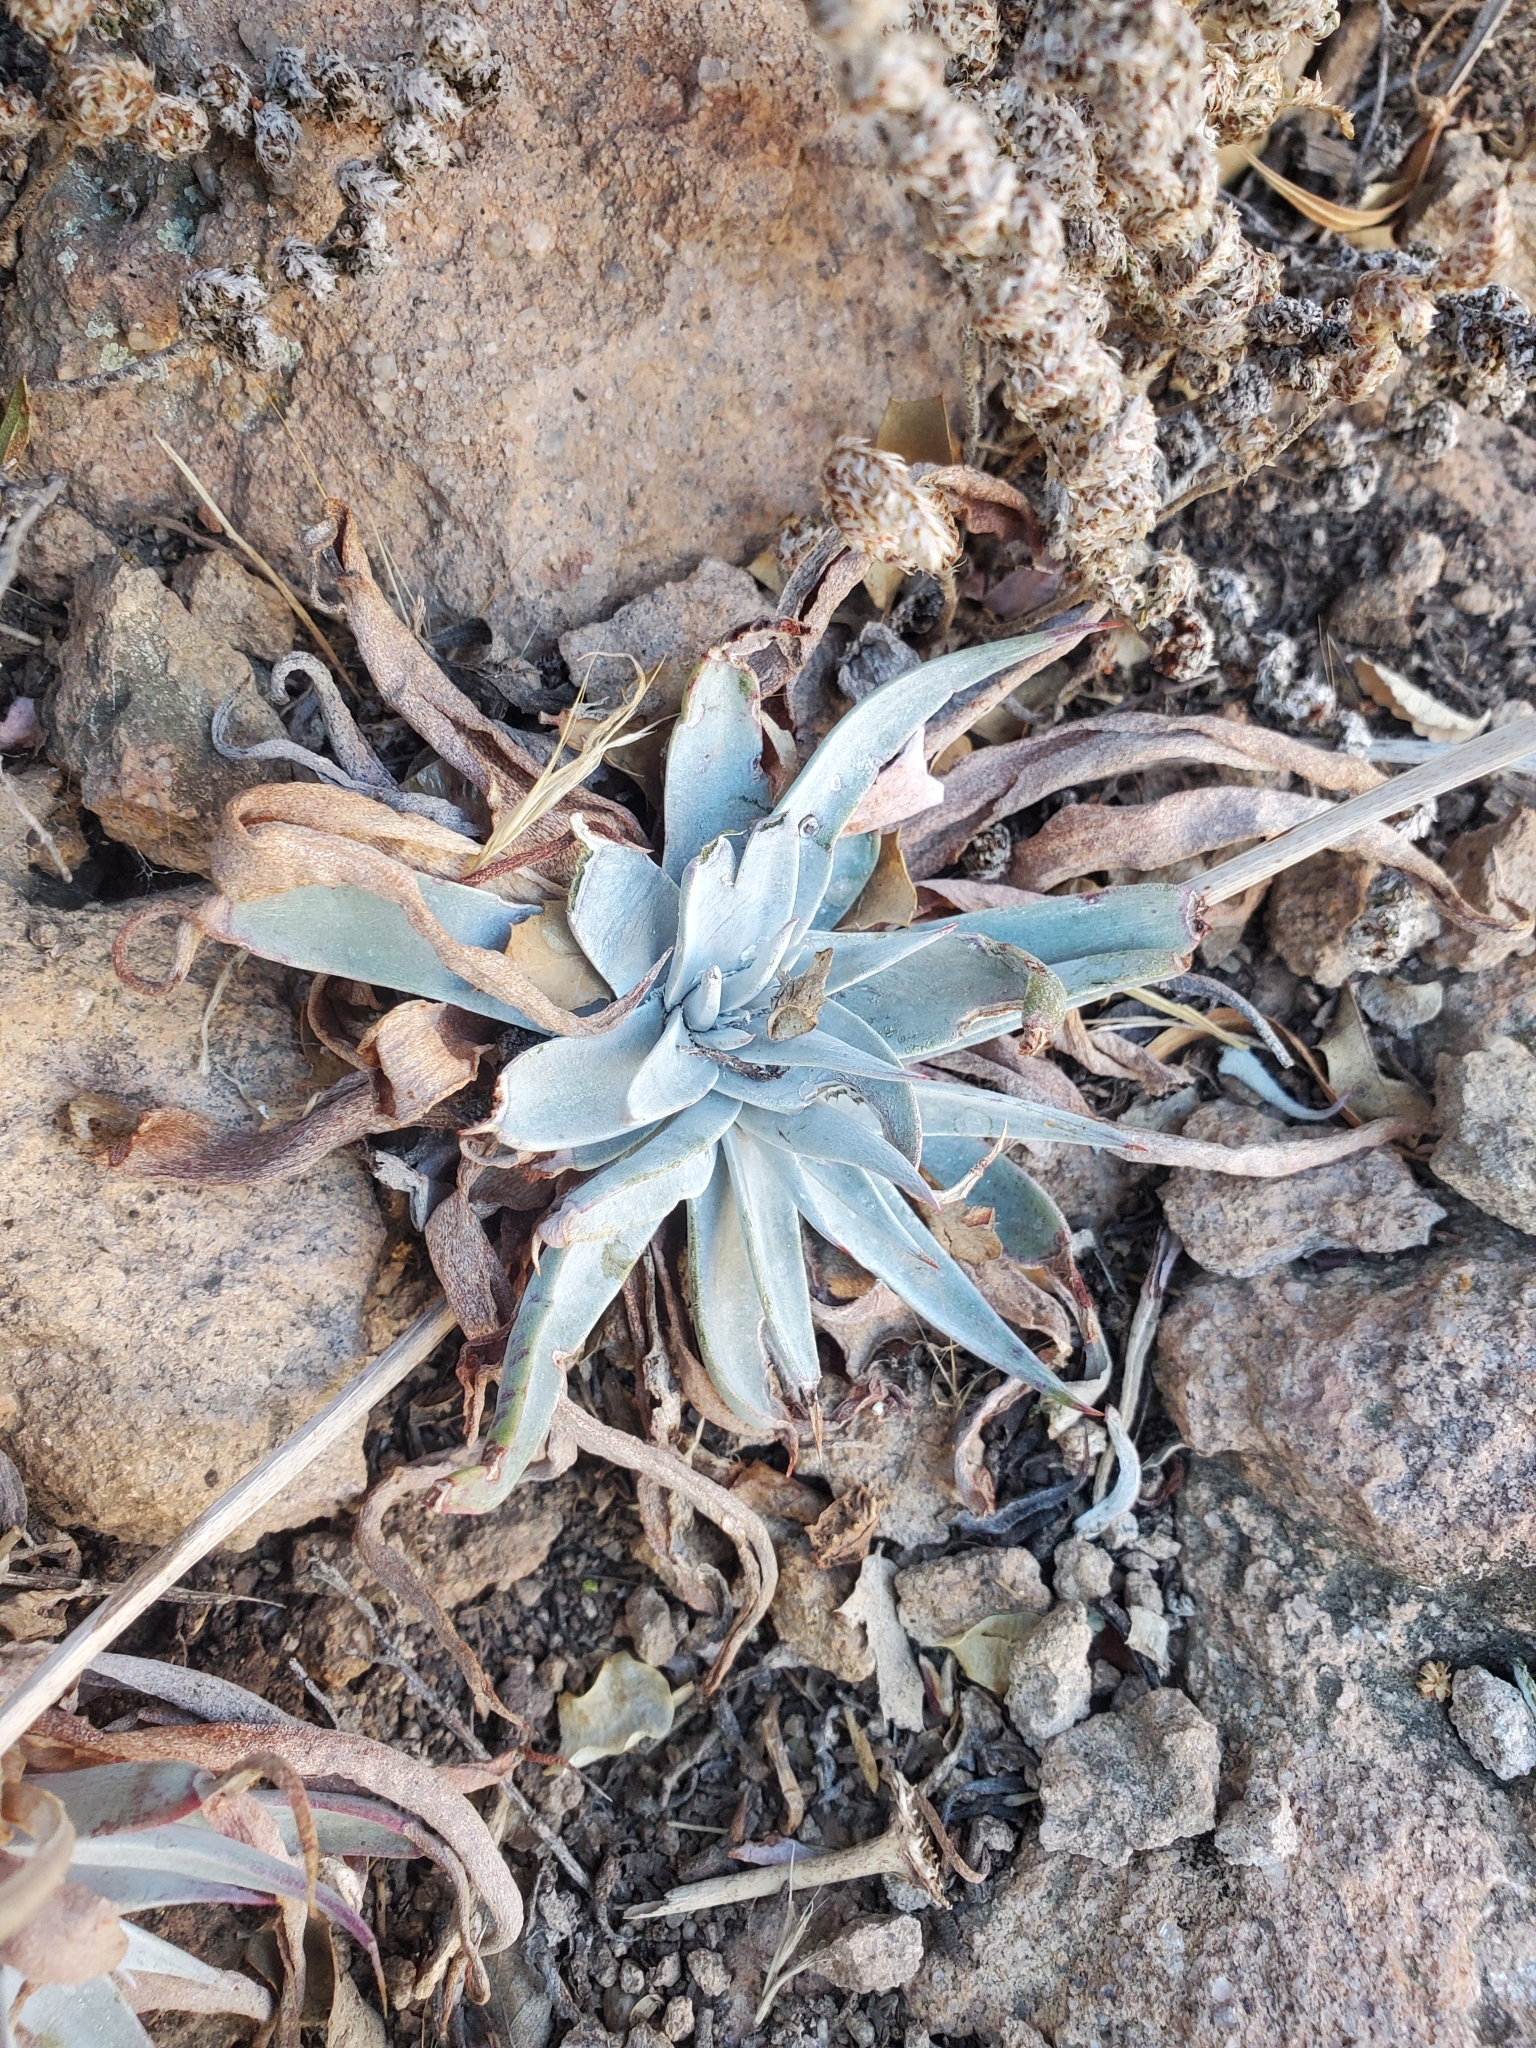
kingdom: Plantae
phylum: Tracheophyta
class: Magnoliopsida
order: Saxifragales
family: Crassulaceae
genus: Dudleya
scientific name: Dudleya collomiae
